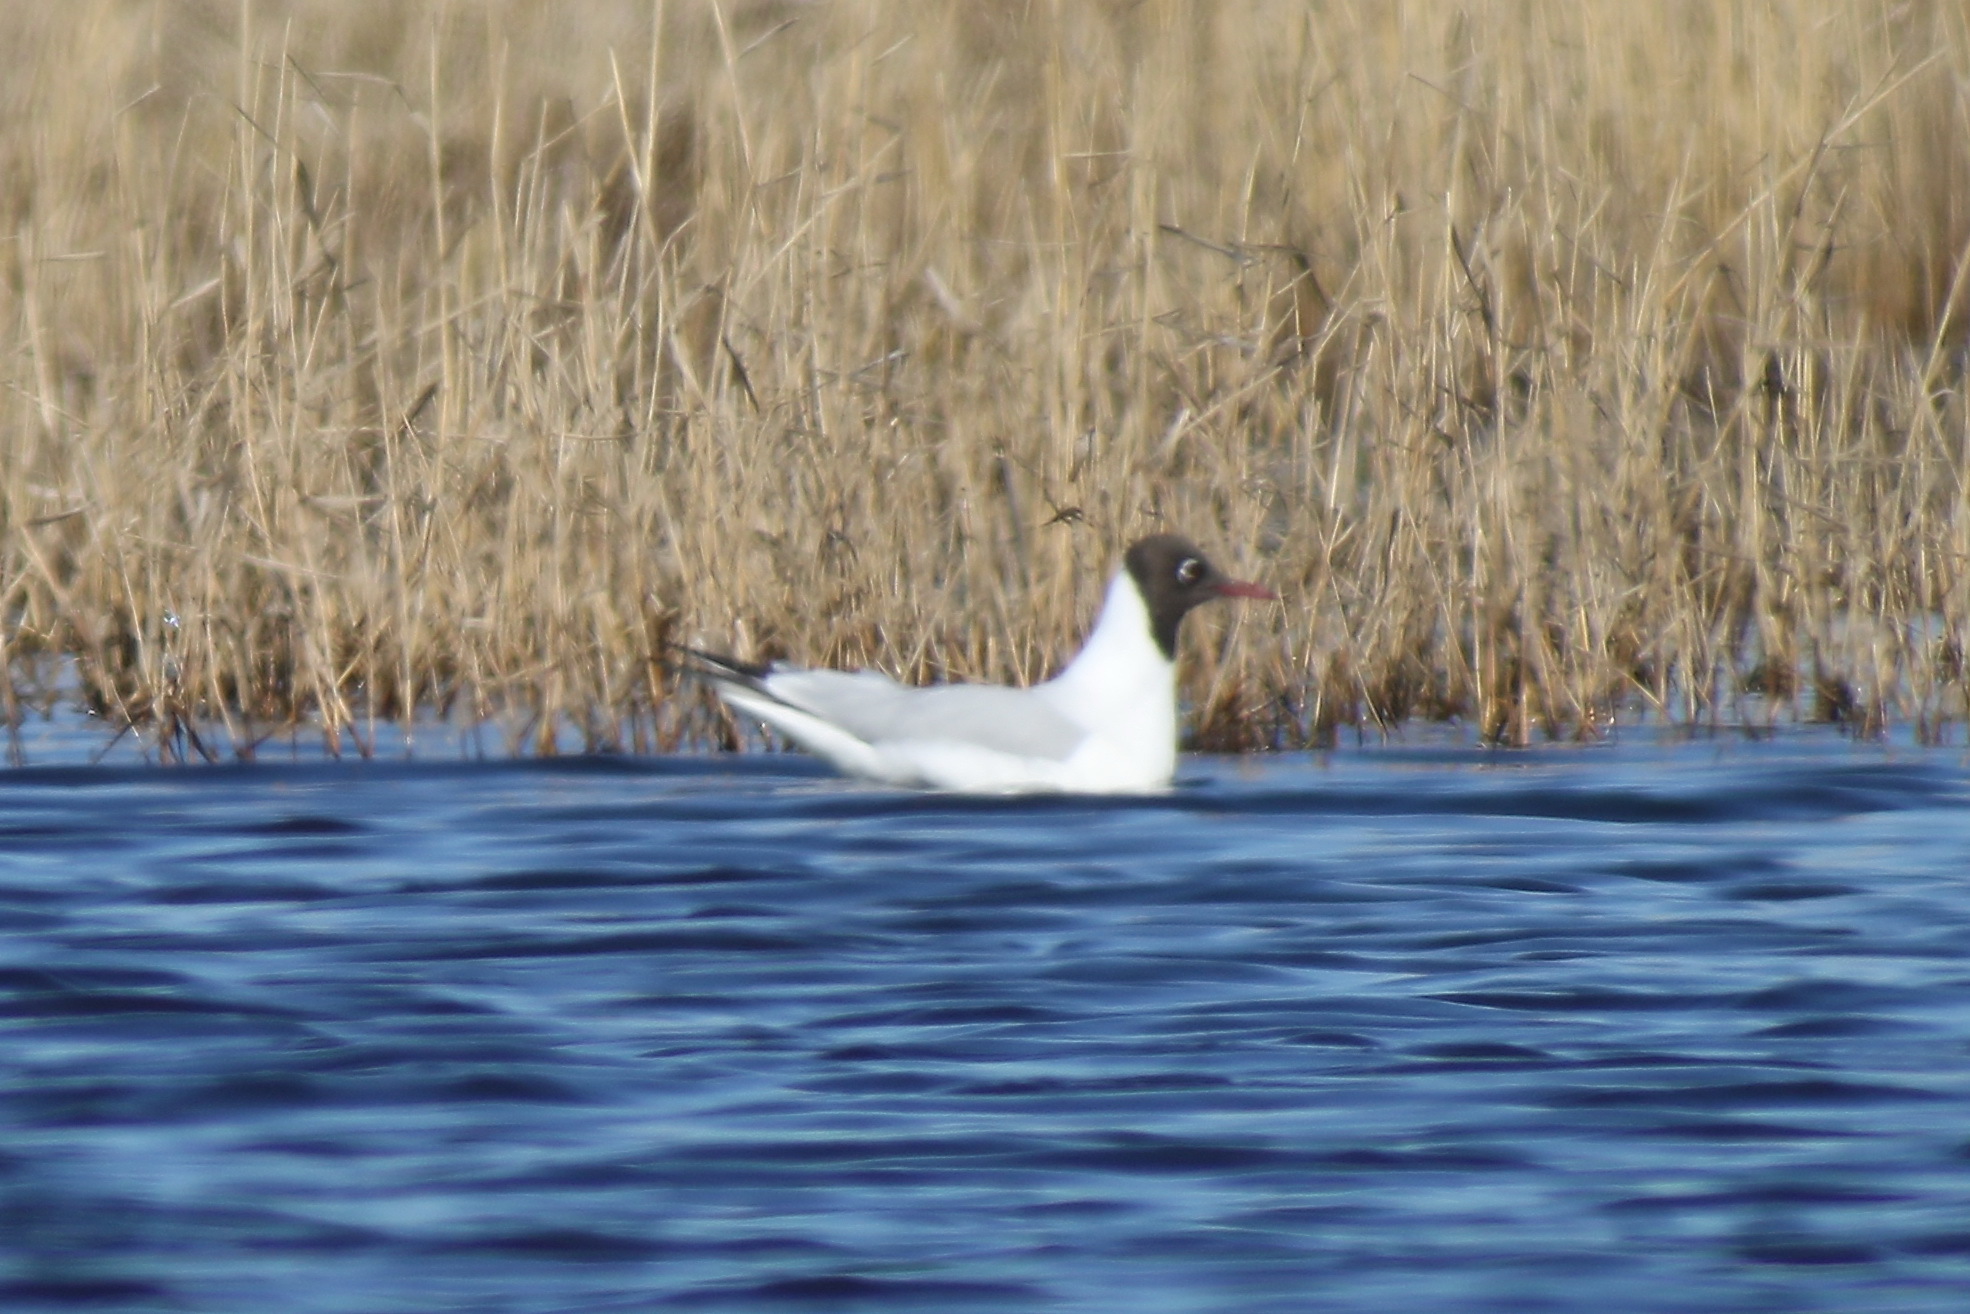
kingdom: Animalia
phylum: Chordata
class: Aves
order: Charadriiformes
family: Laridae
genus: Chroicocephalus
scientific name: Chroicocephalus ridibundus
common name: Black-headed gull
